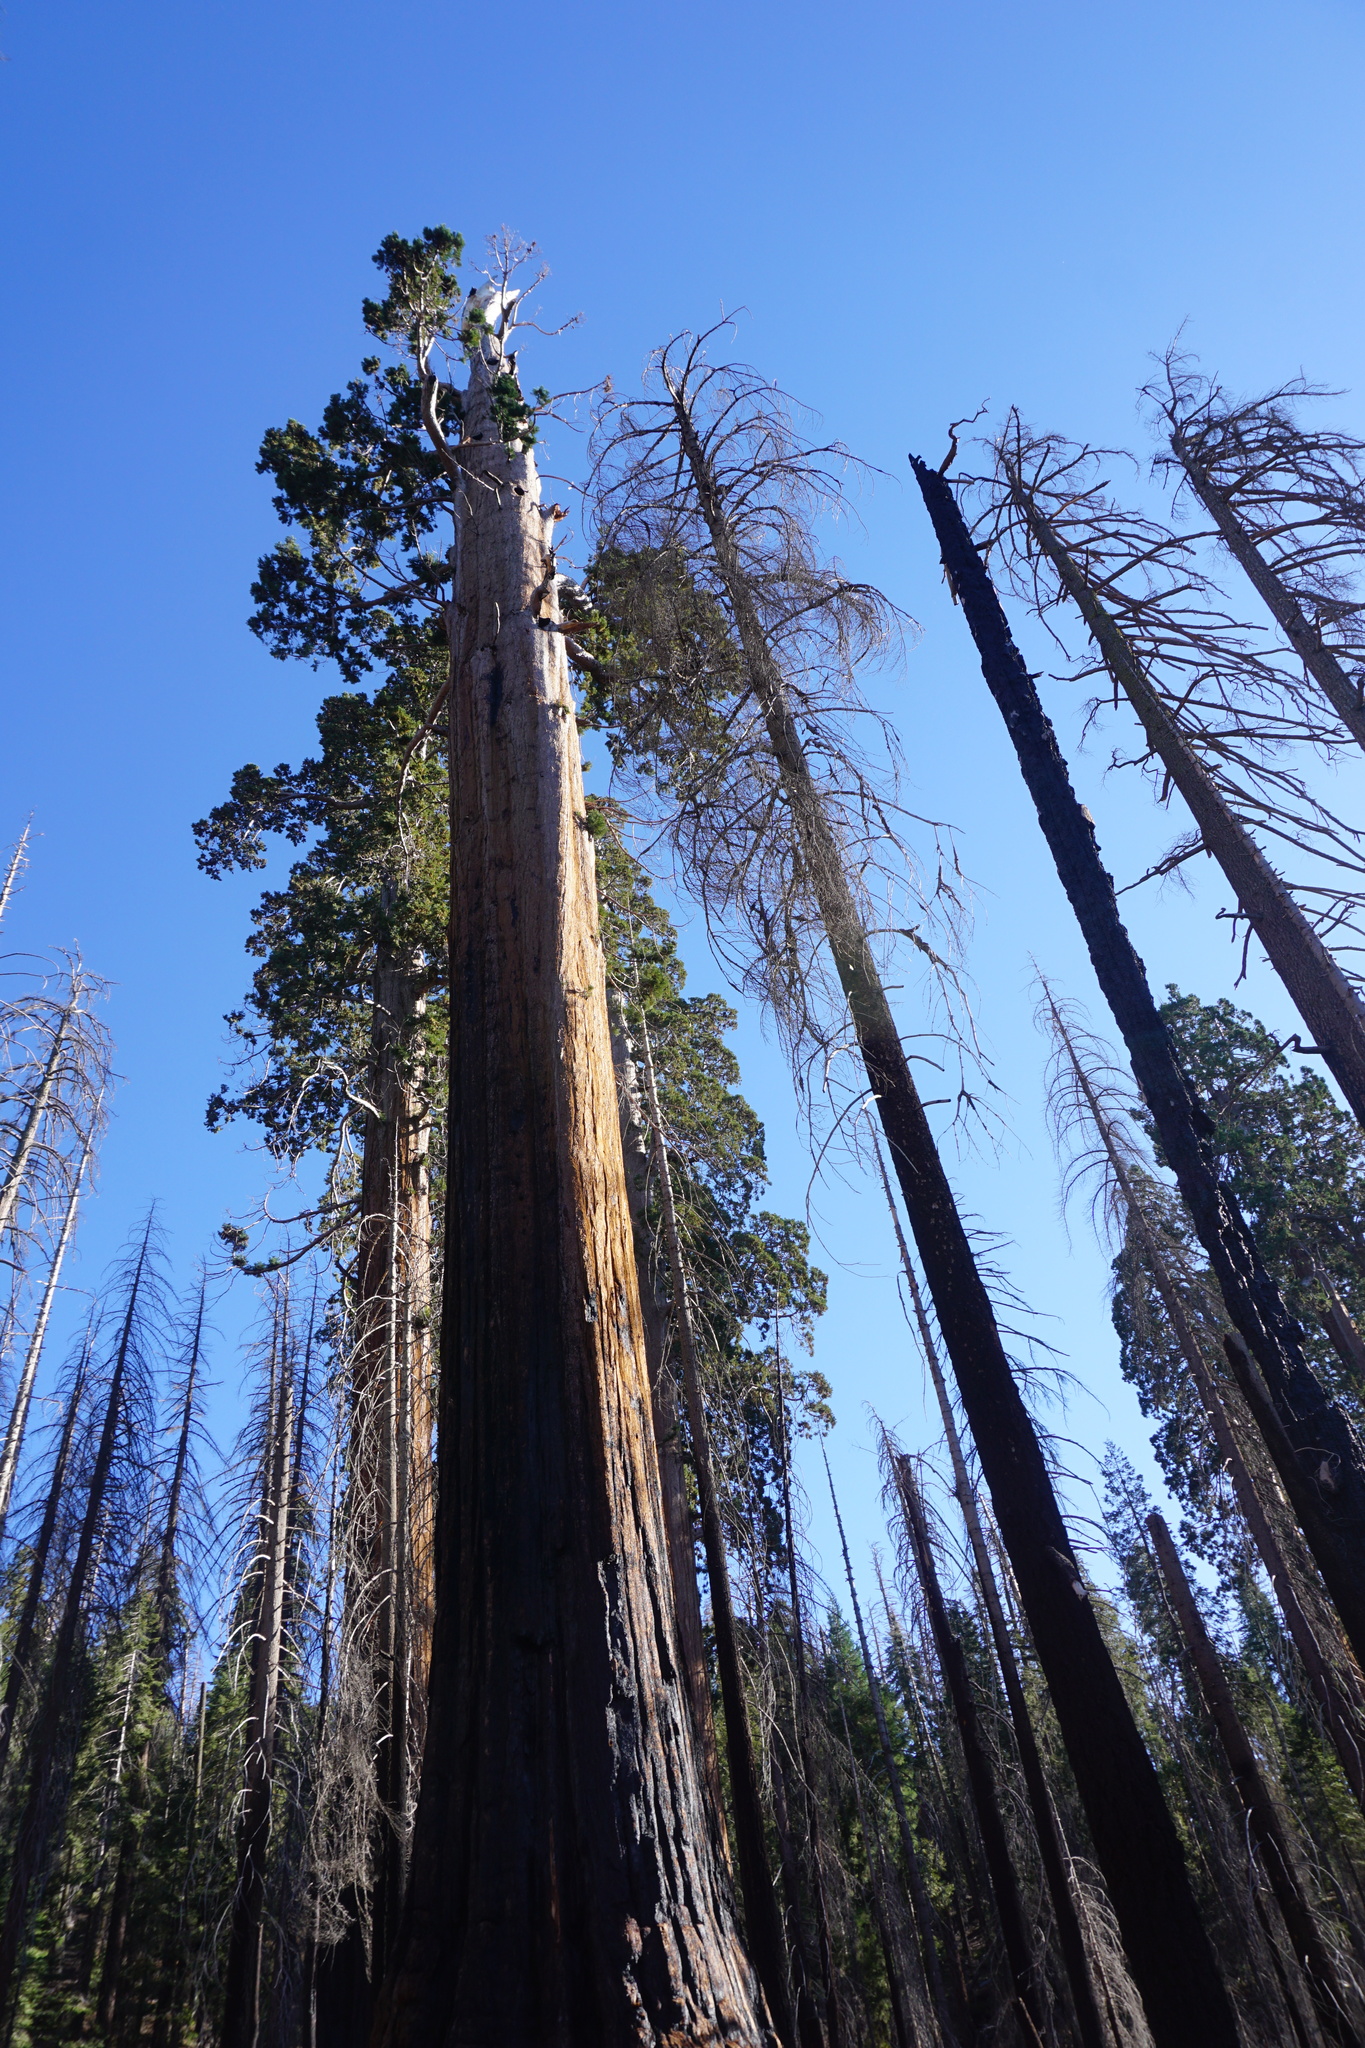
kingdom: Plantae
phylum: Tracheophyta
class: Pinopsida
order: Pinales
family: Cupressaceae
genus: Sequoiadendron
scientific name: Sequoiadendron giganteum
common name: Wellingtonia
